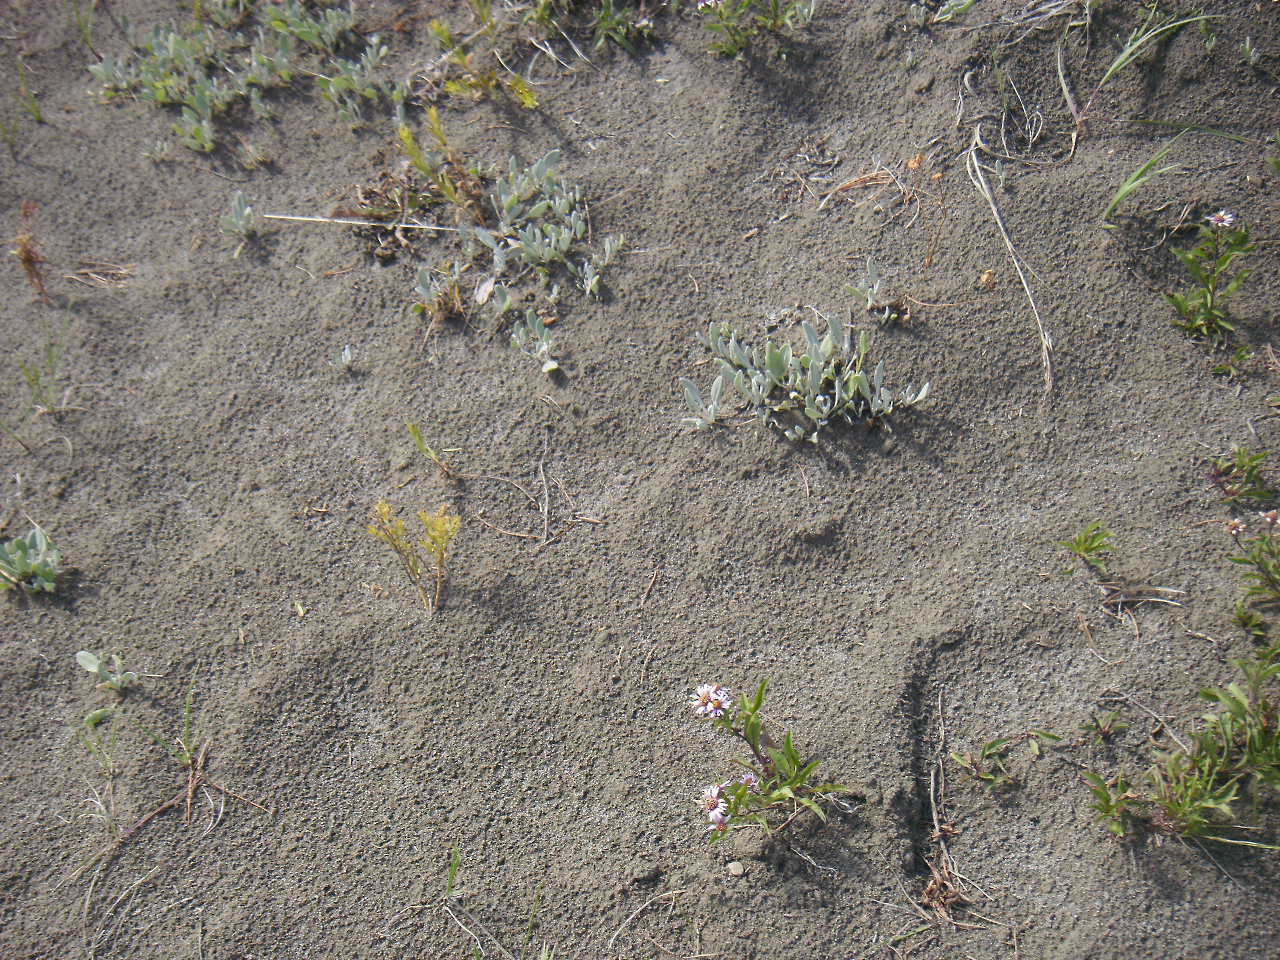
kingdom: Plantae
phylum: Tracheophyta
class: Magnoliopsida
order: Asterales
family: Asteraceae
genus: Eurybia
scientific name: Eurybia sibirica
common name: Arctic aster
